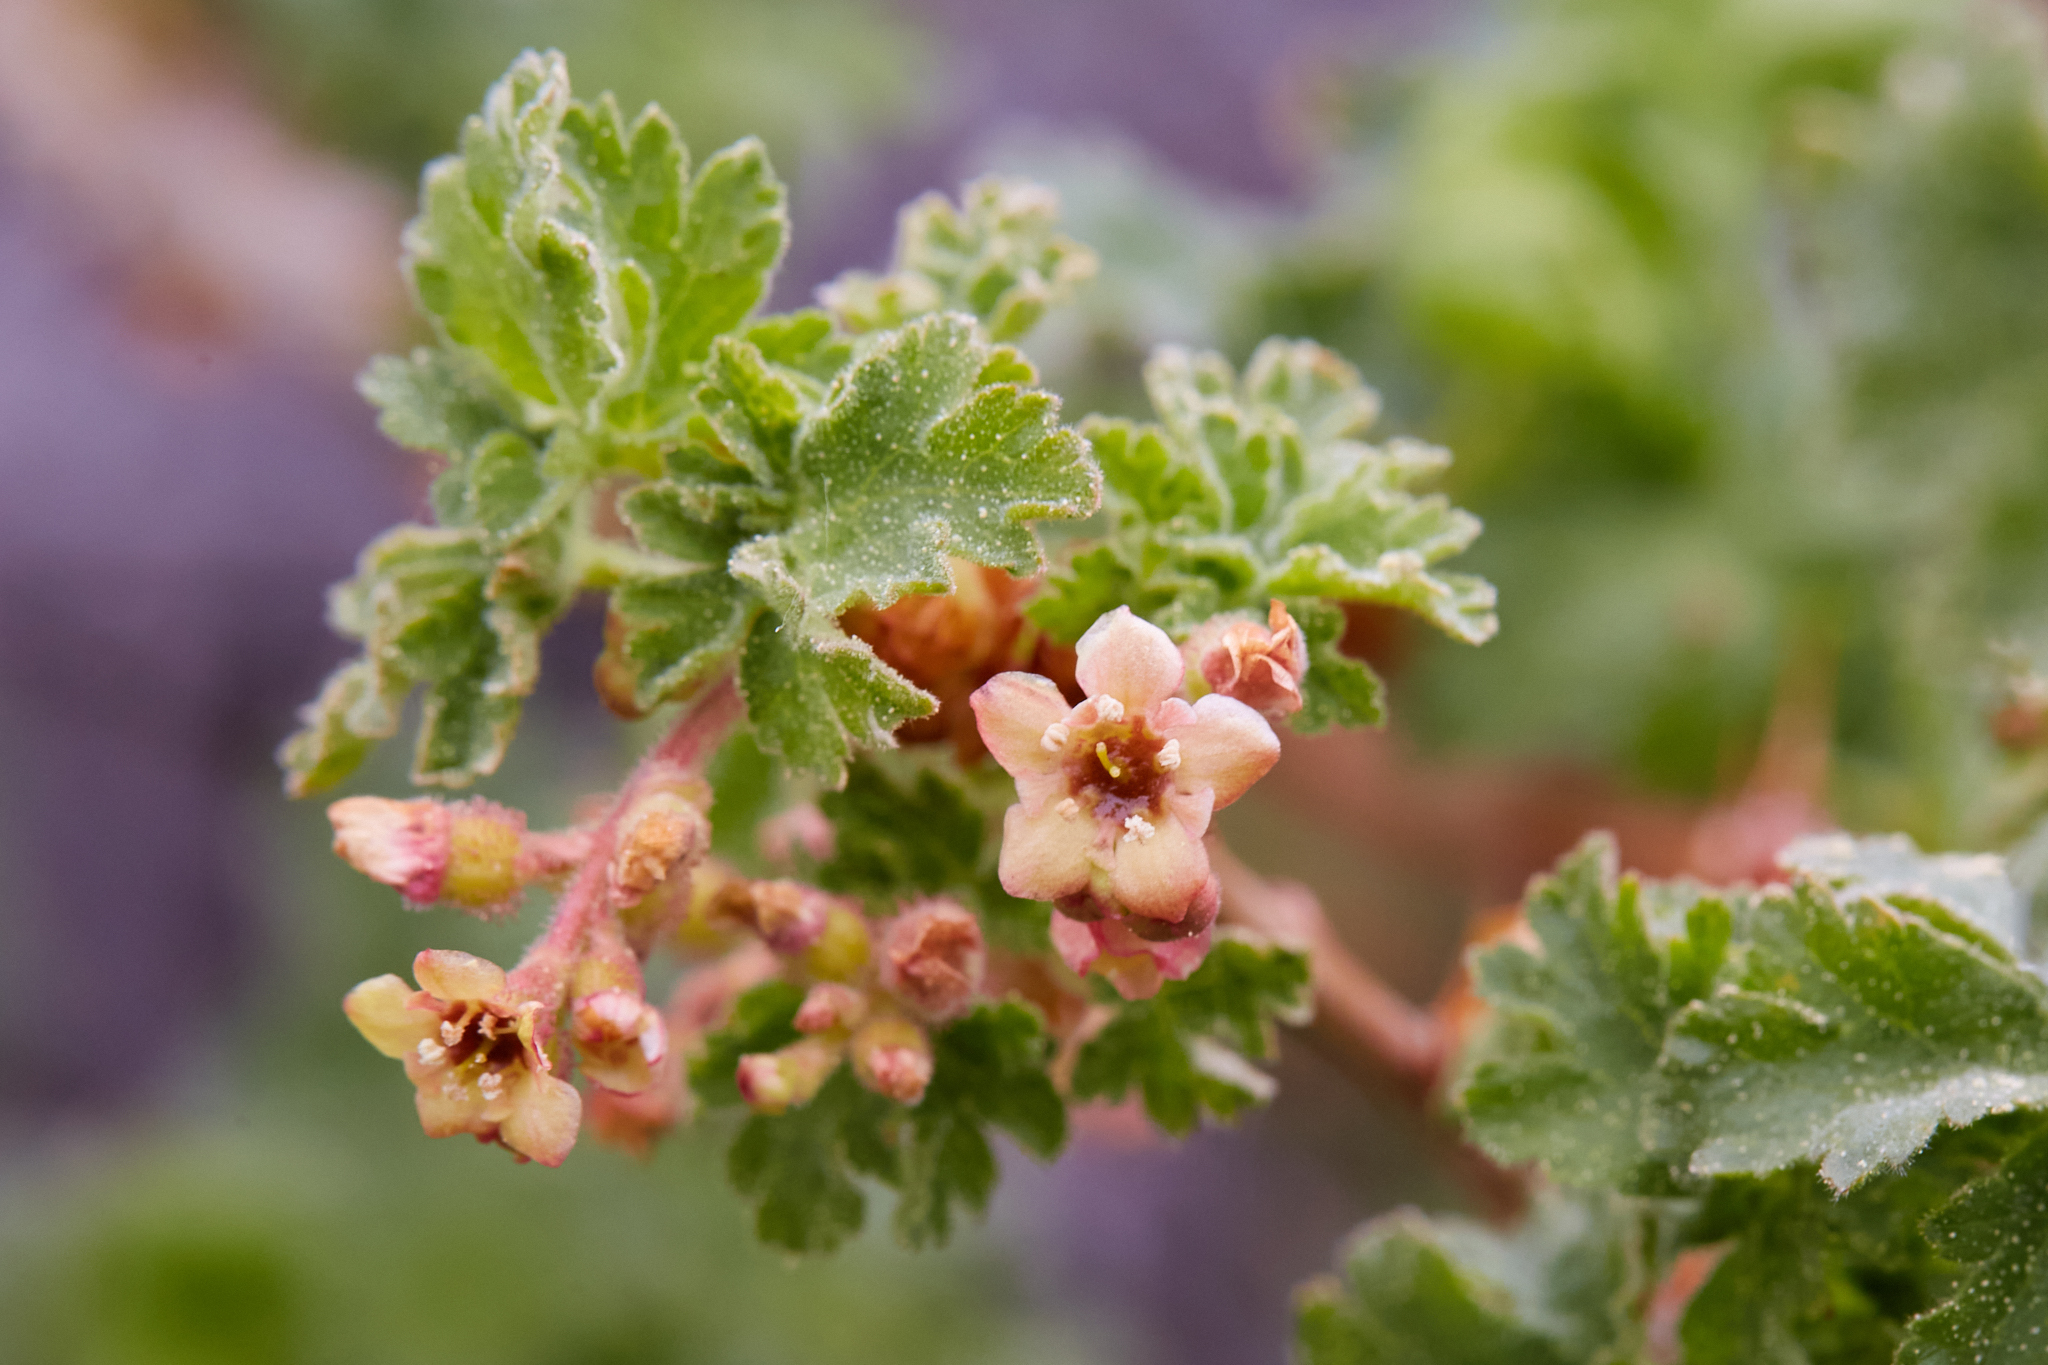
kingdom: Plantae
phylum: Tracheophyta
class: Magnoliopsida
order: Saxifragales
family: Grossulariaceae
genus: Ribes
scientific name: Ribes montigenum
